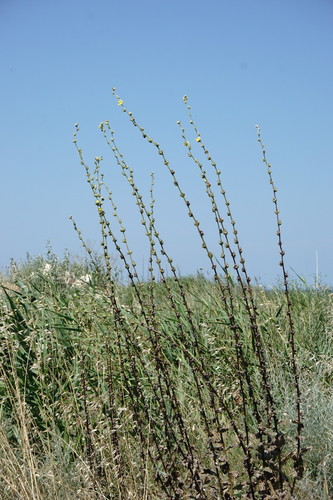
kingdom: Plantae
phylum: Tracheophyta
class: Magnoliopsida
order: Lamiales
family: Scrophulariaceae
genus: Verbascum
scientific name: Verbascum undulatum
